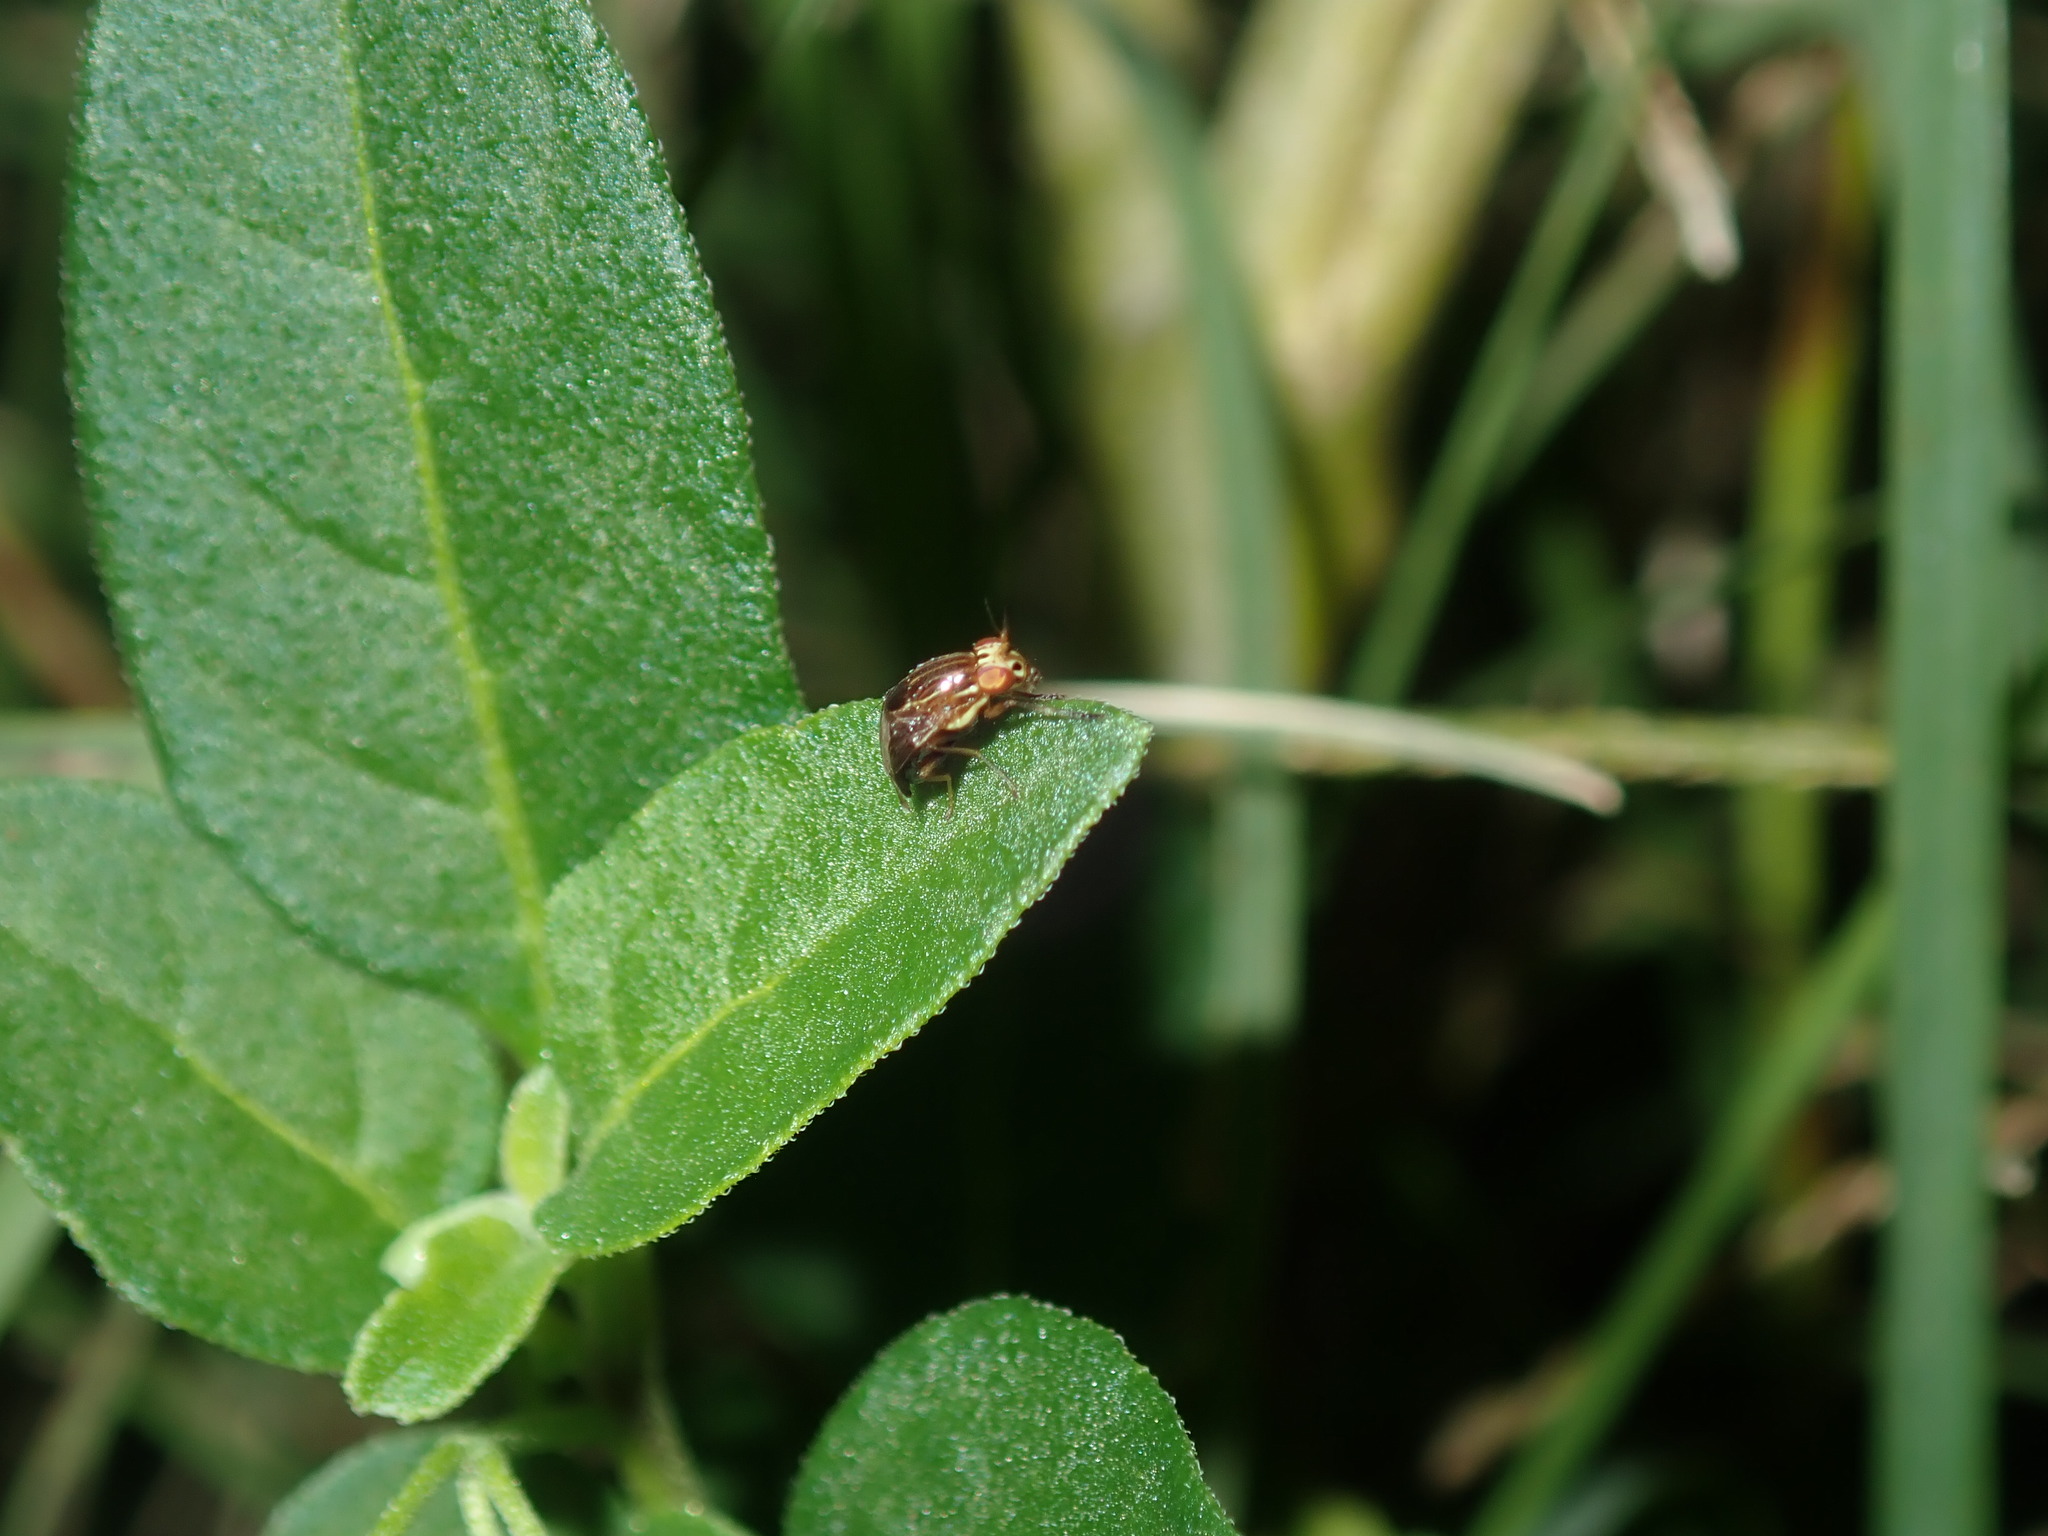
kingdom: Animalia
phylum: Arthropoda
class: Insecta
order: Diptera
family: Lauxaniidae
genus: Steganopsis
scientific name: Steganopsis melanogaster
